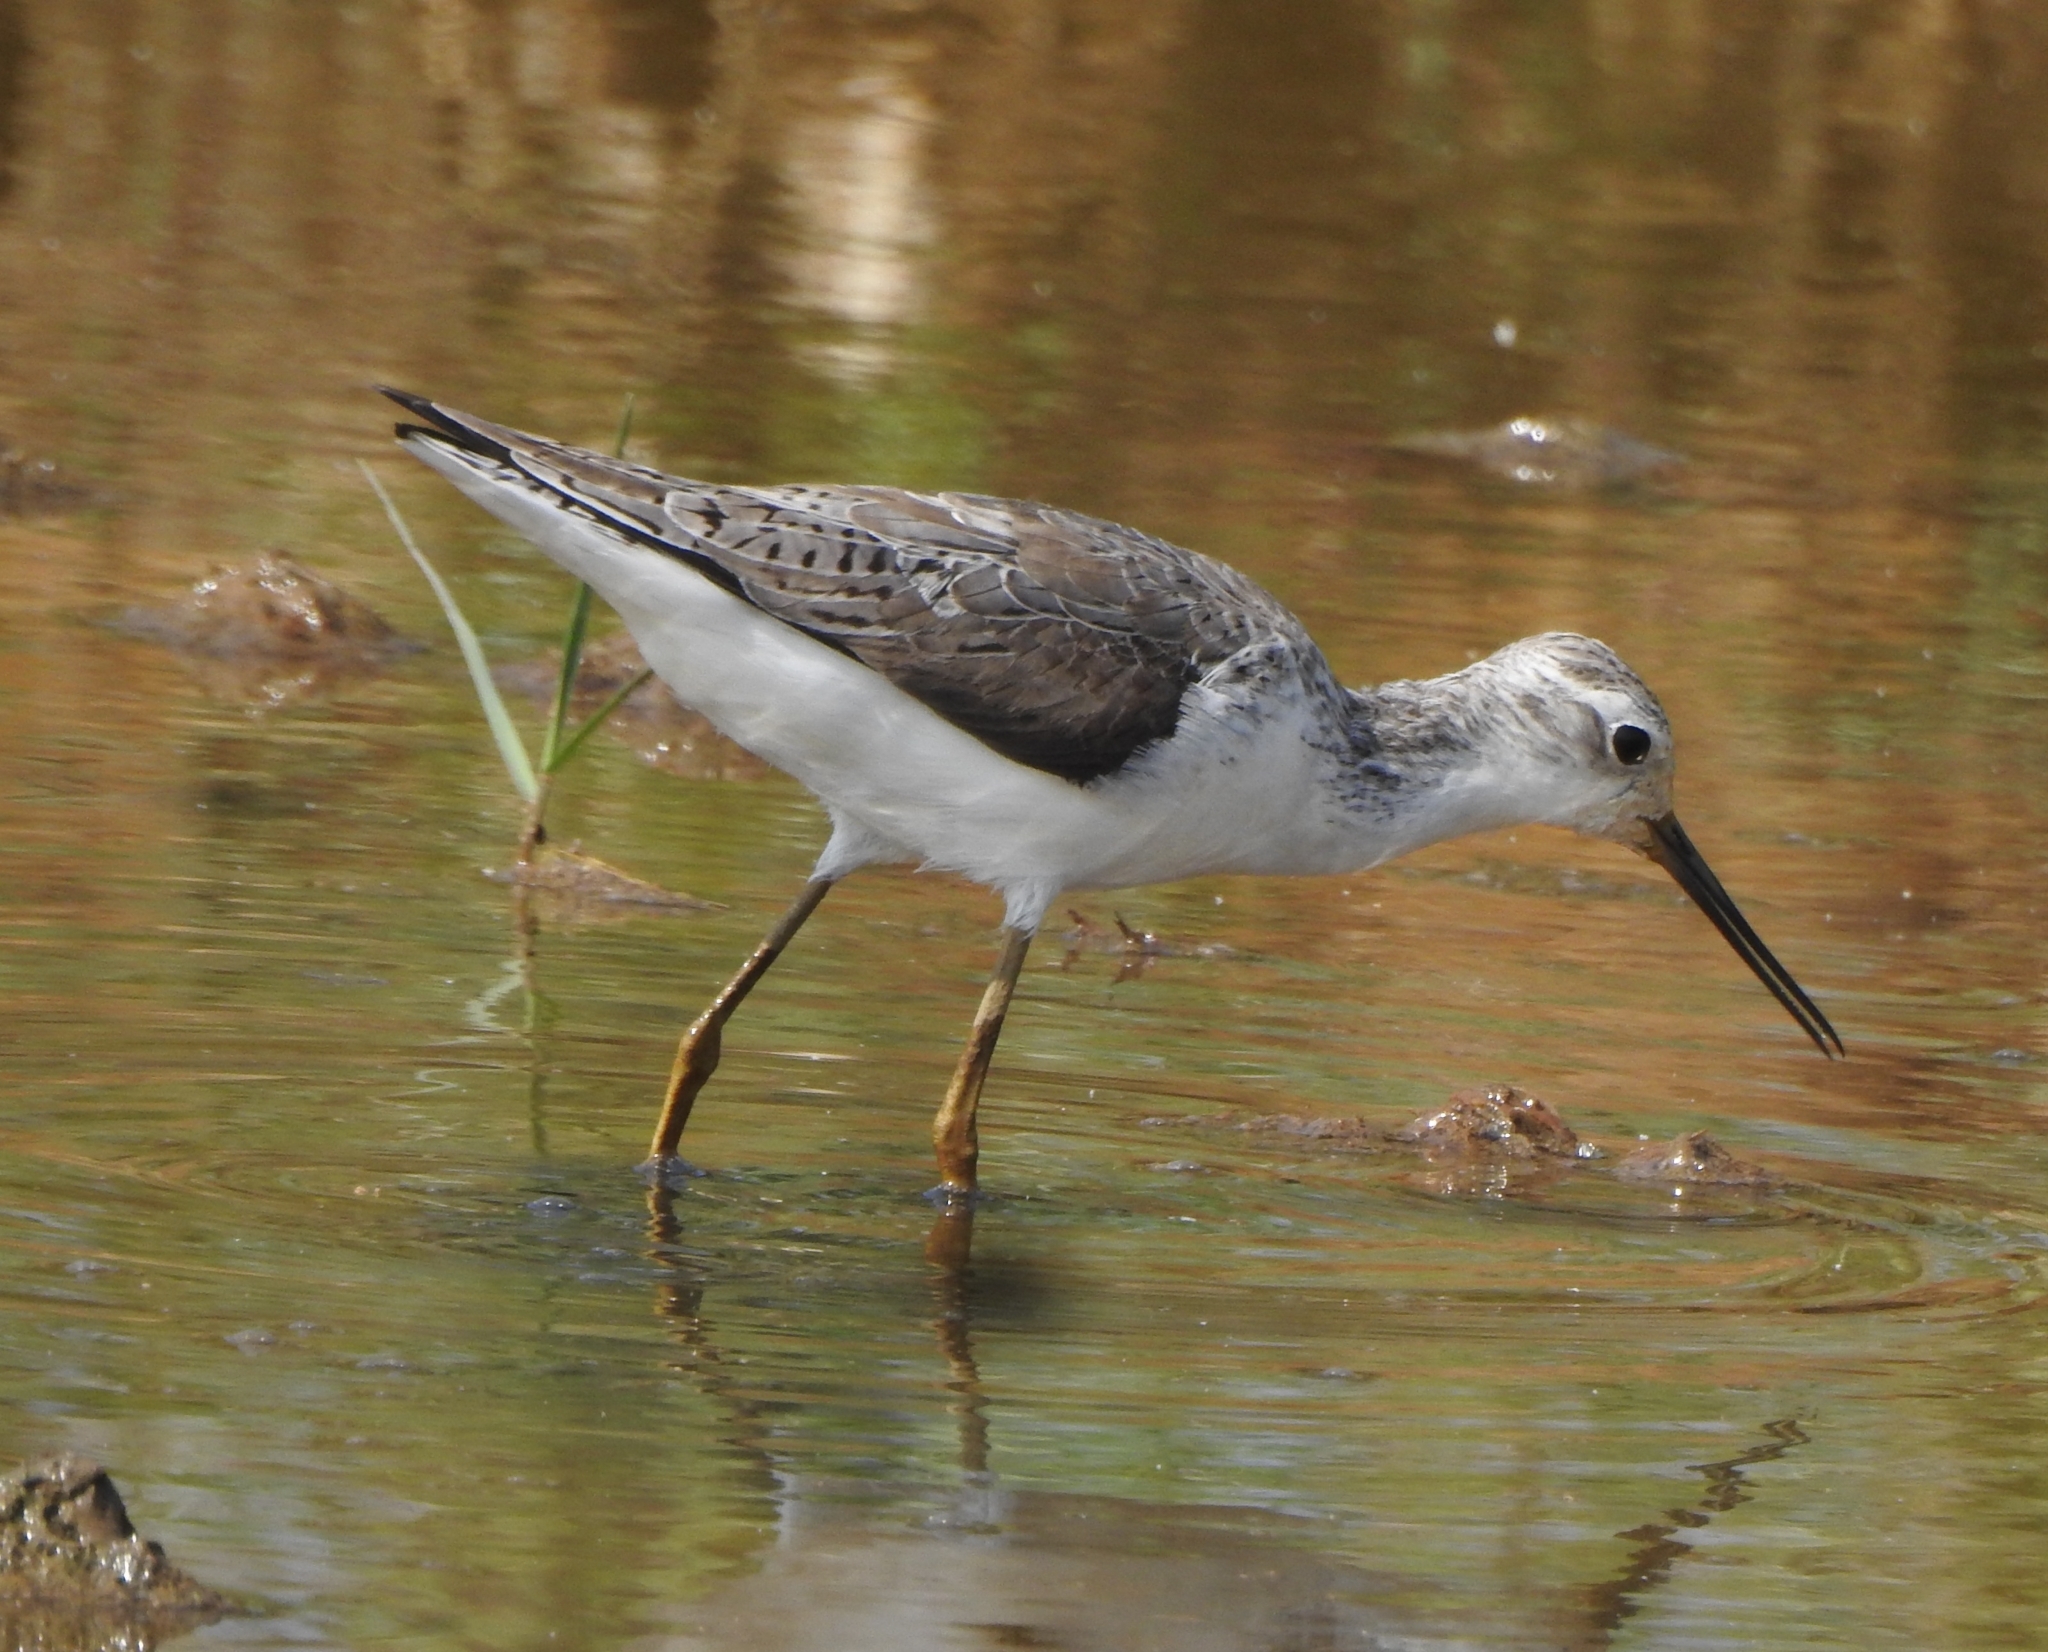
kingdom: Animalia
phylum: Chordata
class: Aves
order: Charadriiformes
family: Scolopacidae
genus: Tringa
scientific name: Tringa stagnatilis
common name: Marsh sandpiper
